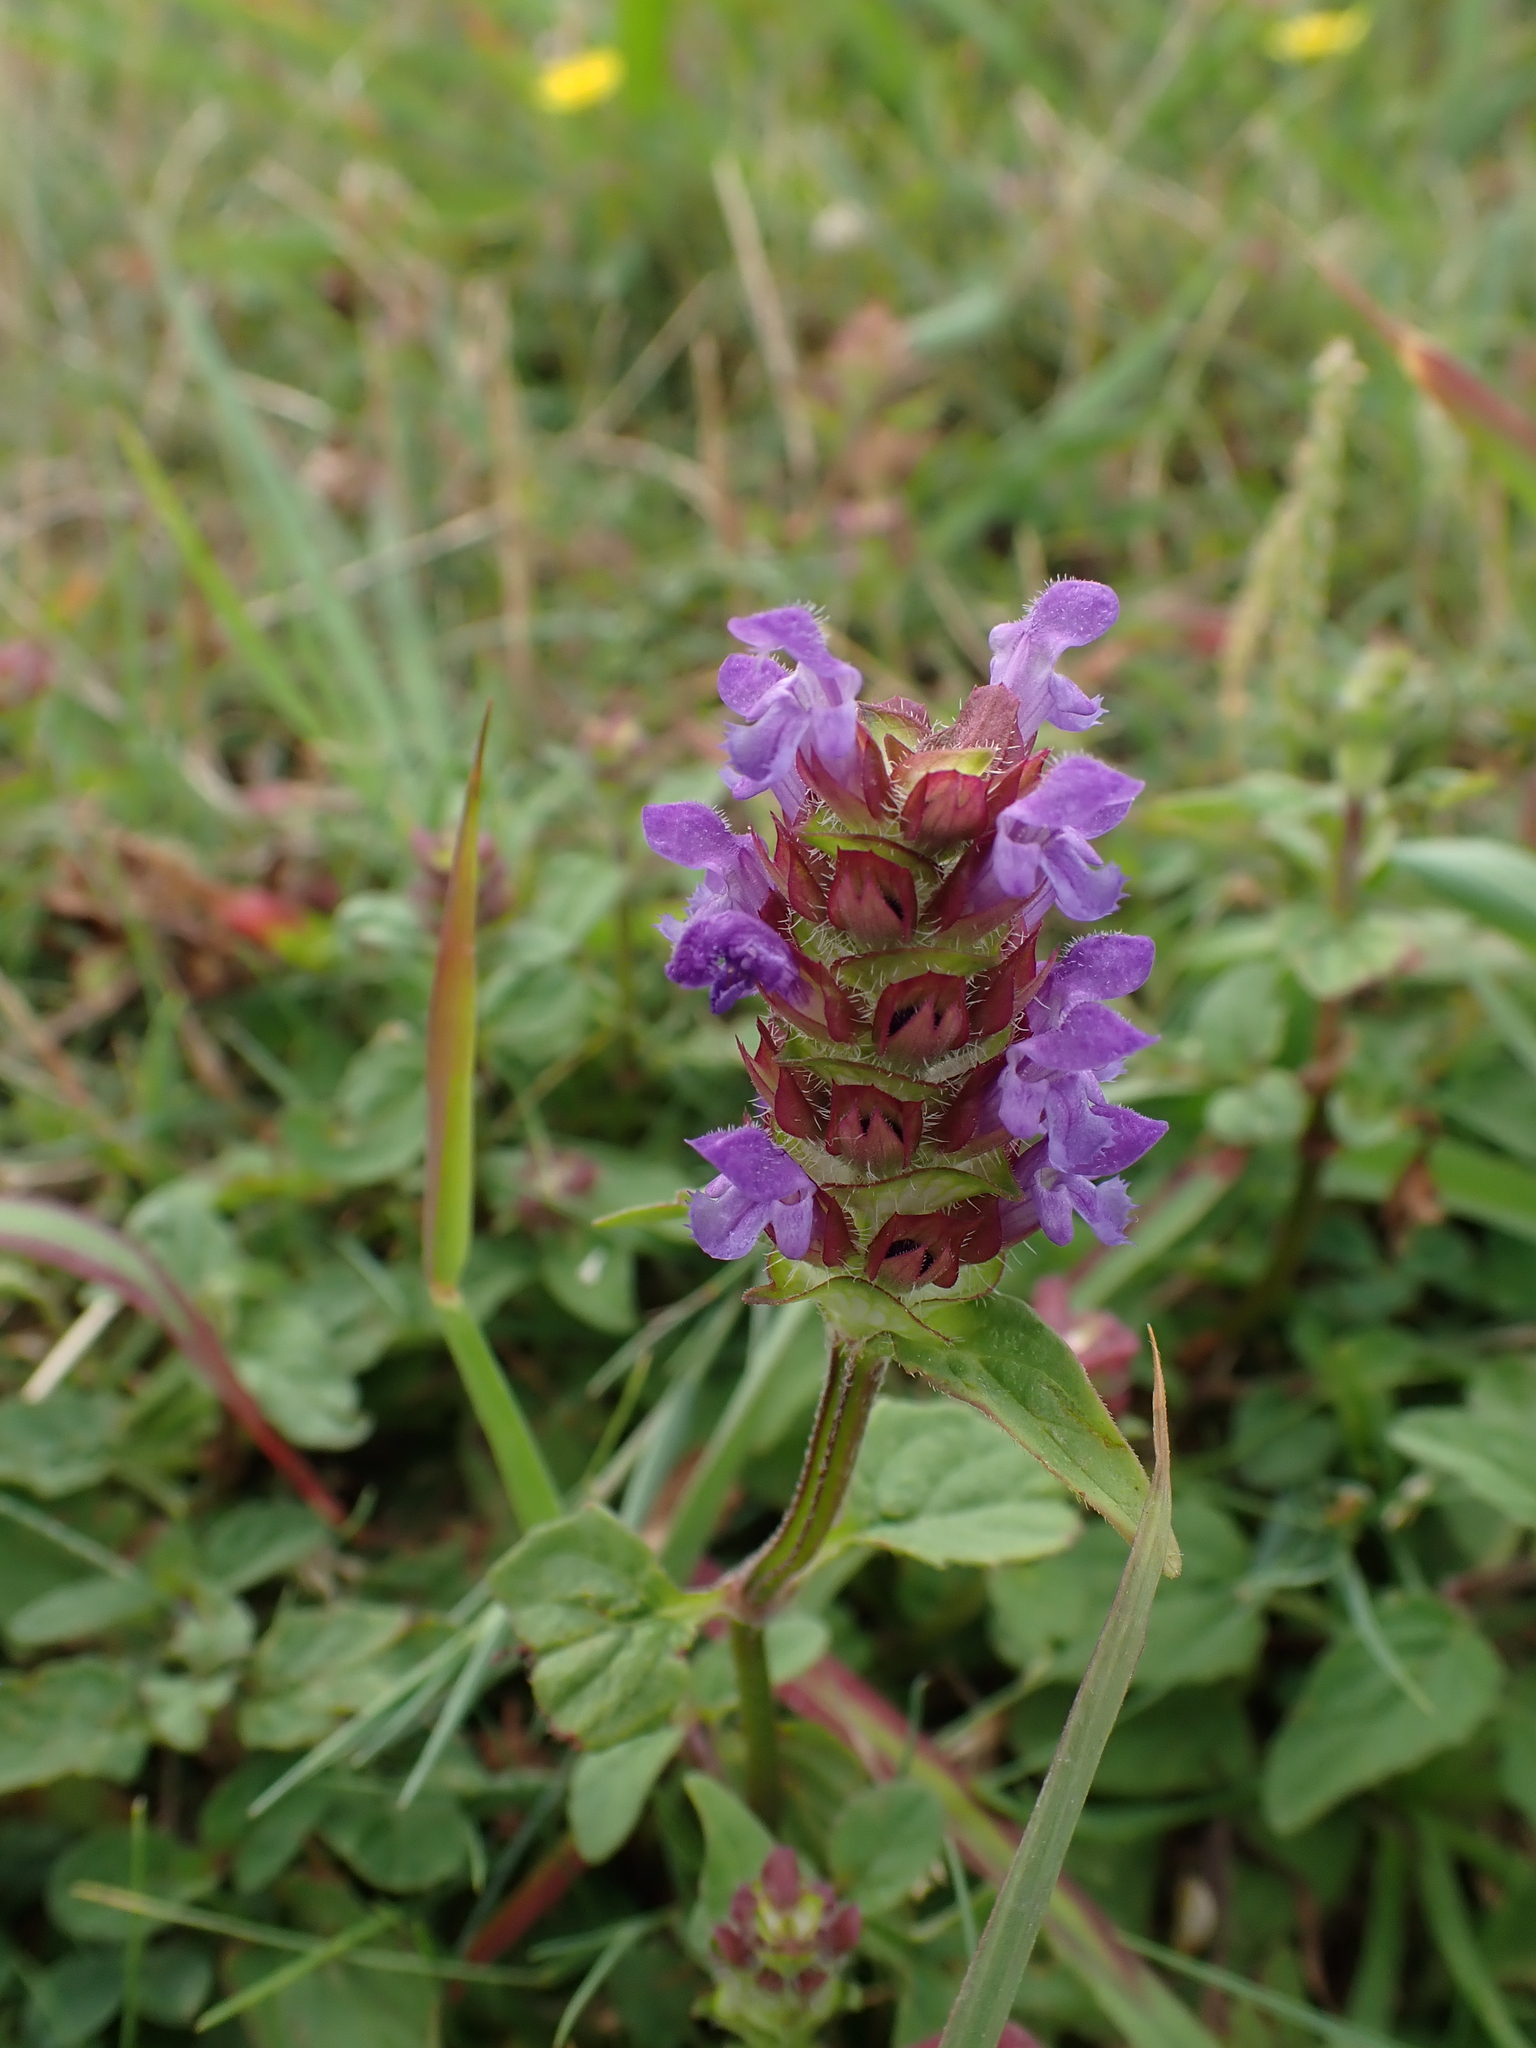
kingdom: Plantae
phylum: Tracheophyta
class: Magnoliopsida
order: Lamiales
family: Lamiaceae
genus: Prunella
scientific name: Prunella vulgaris
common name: Heal-all
